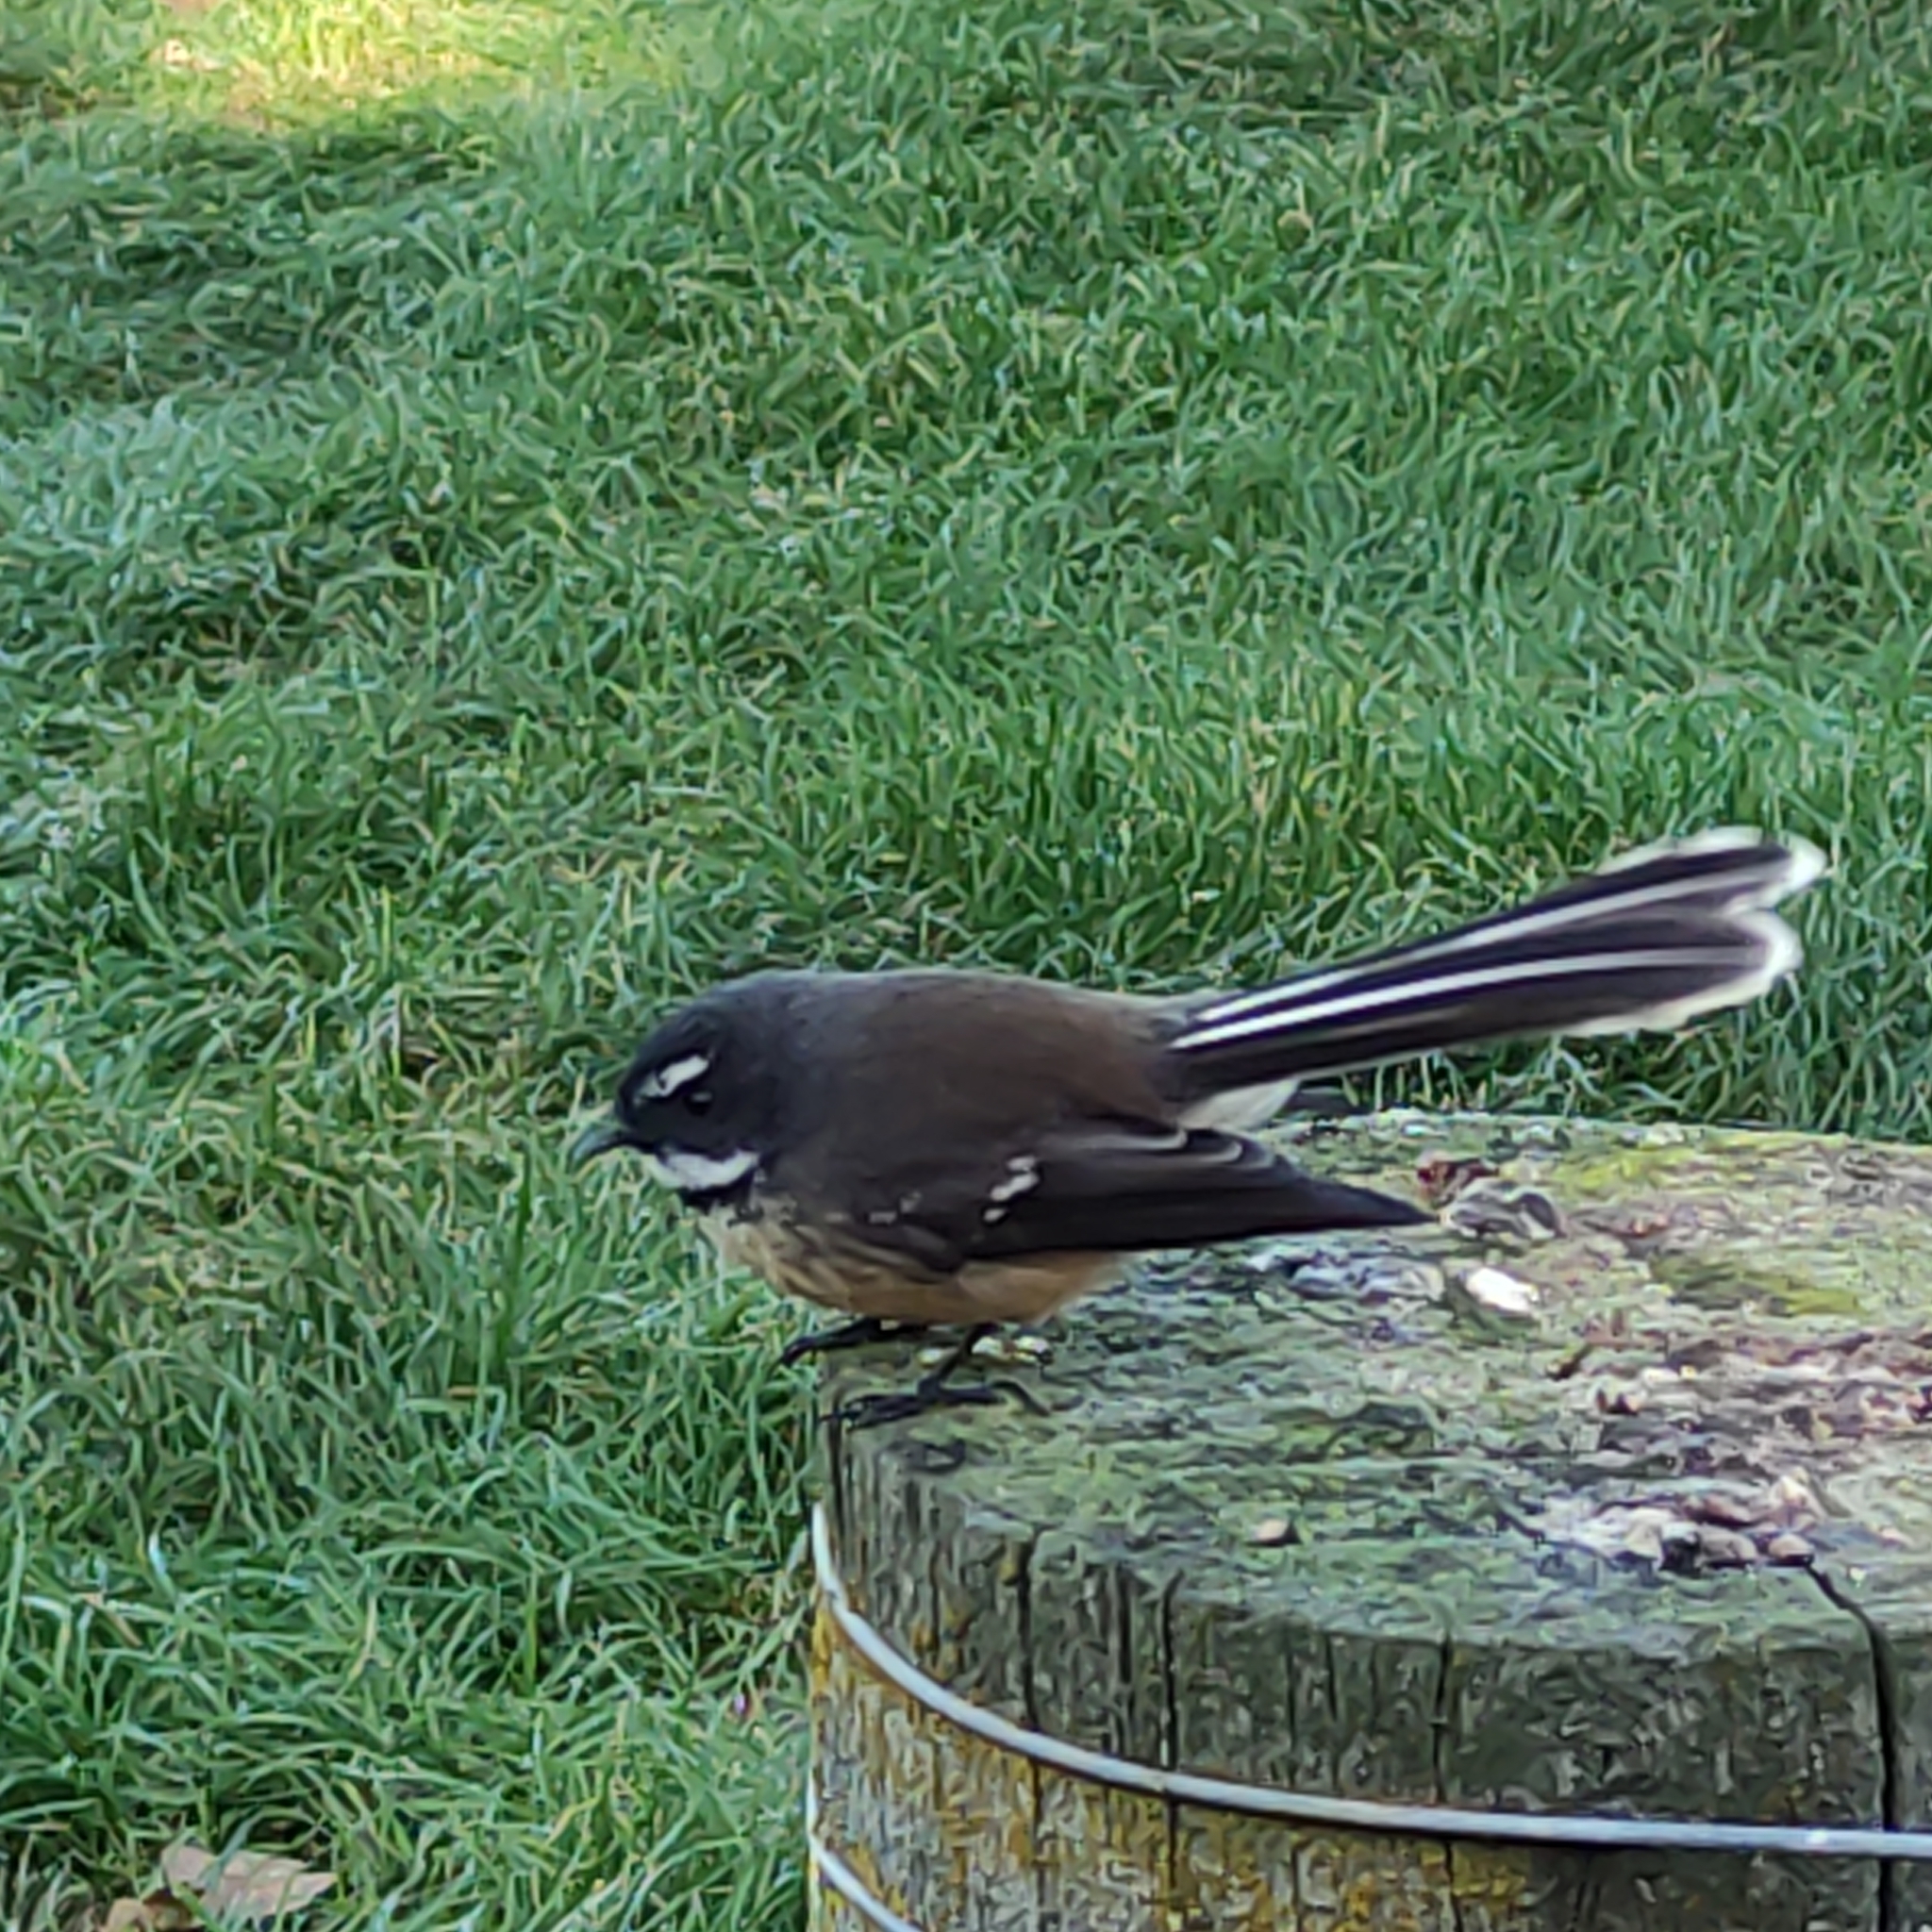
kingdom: Animalia
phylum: Chordata
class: Aves
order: Passeriformes
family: Rhipiduridae
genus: Rhipidura
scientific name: Rhipidura fuliginosa
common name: New zealand fantail
